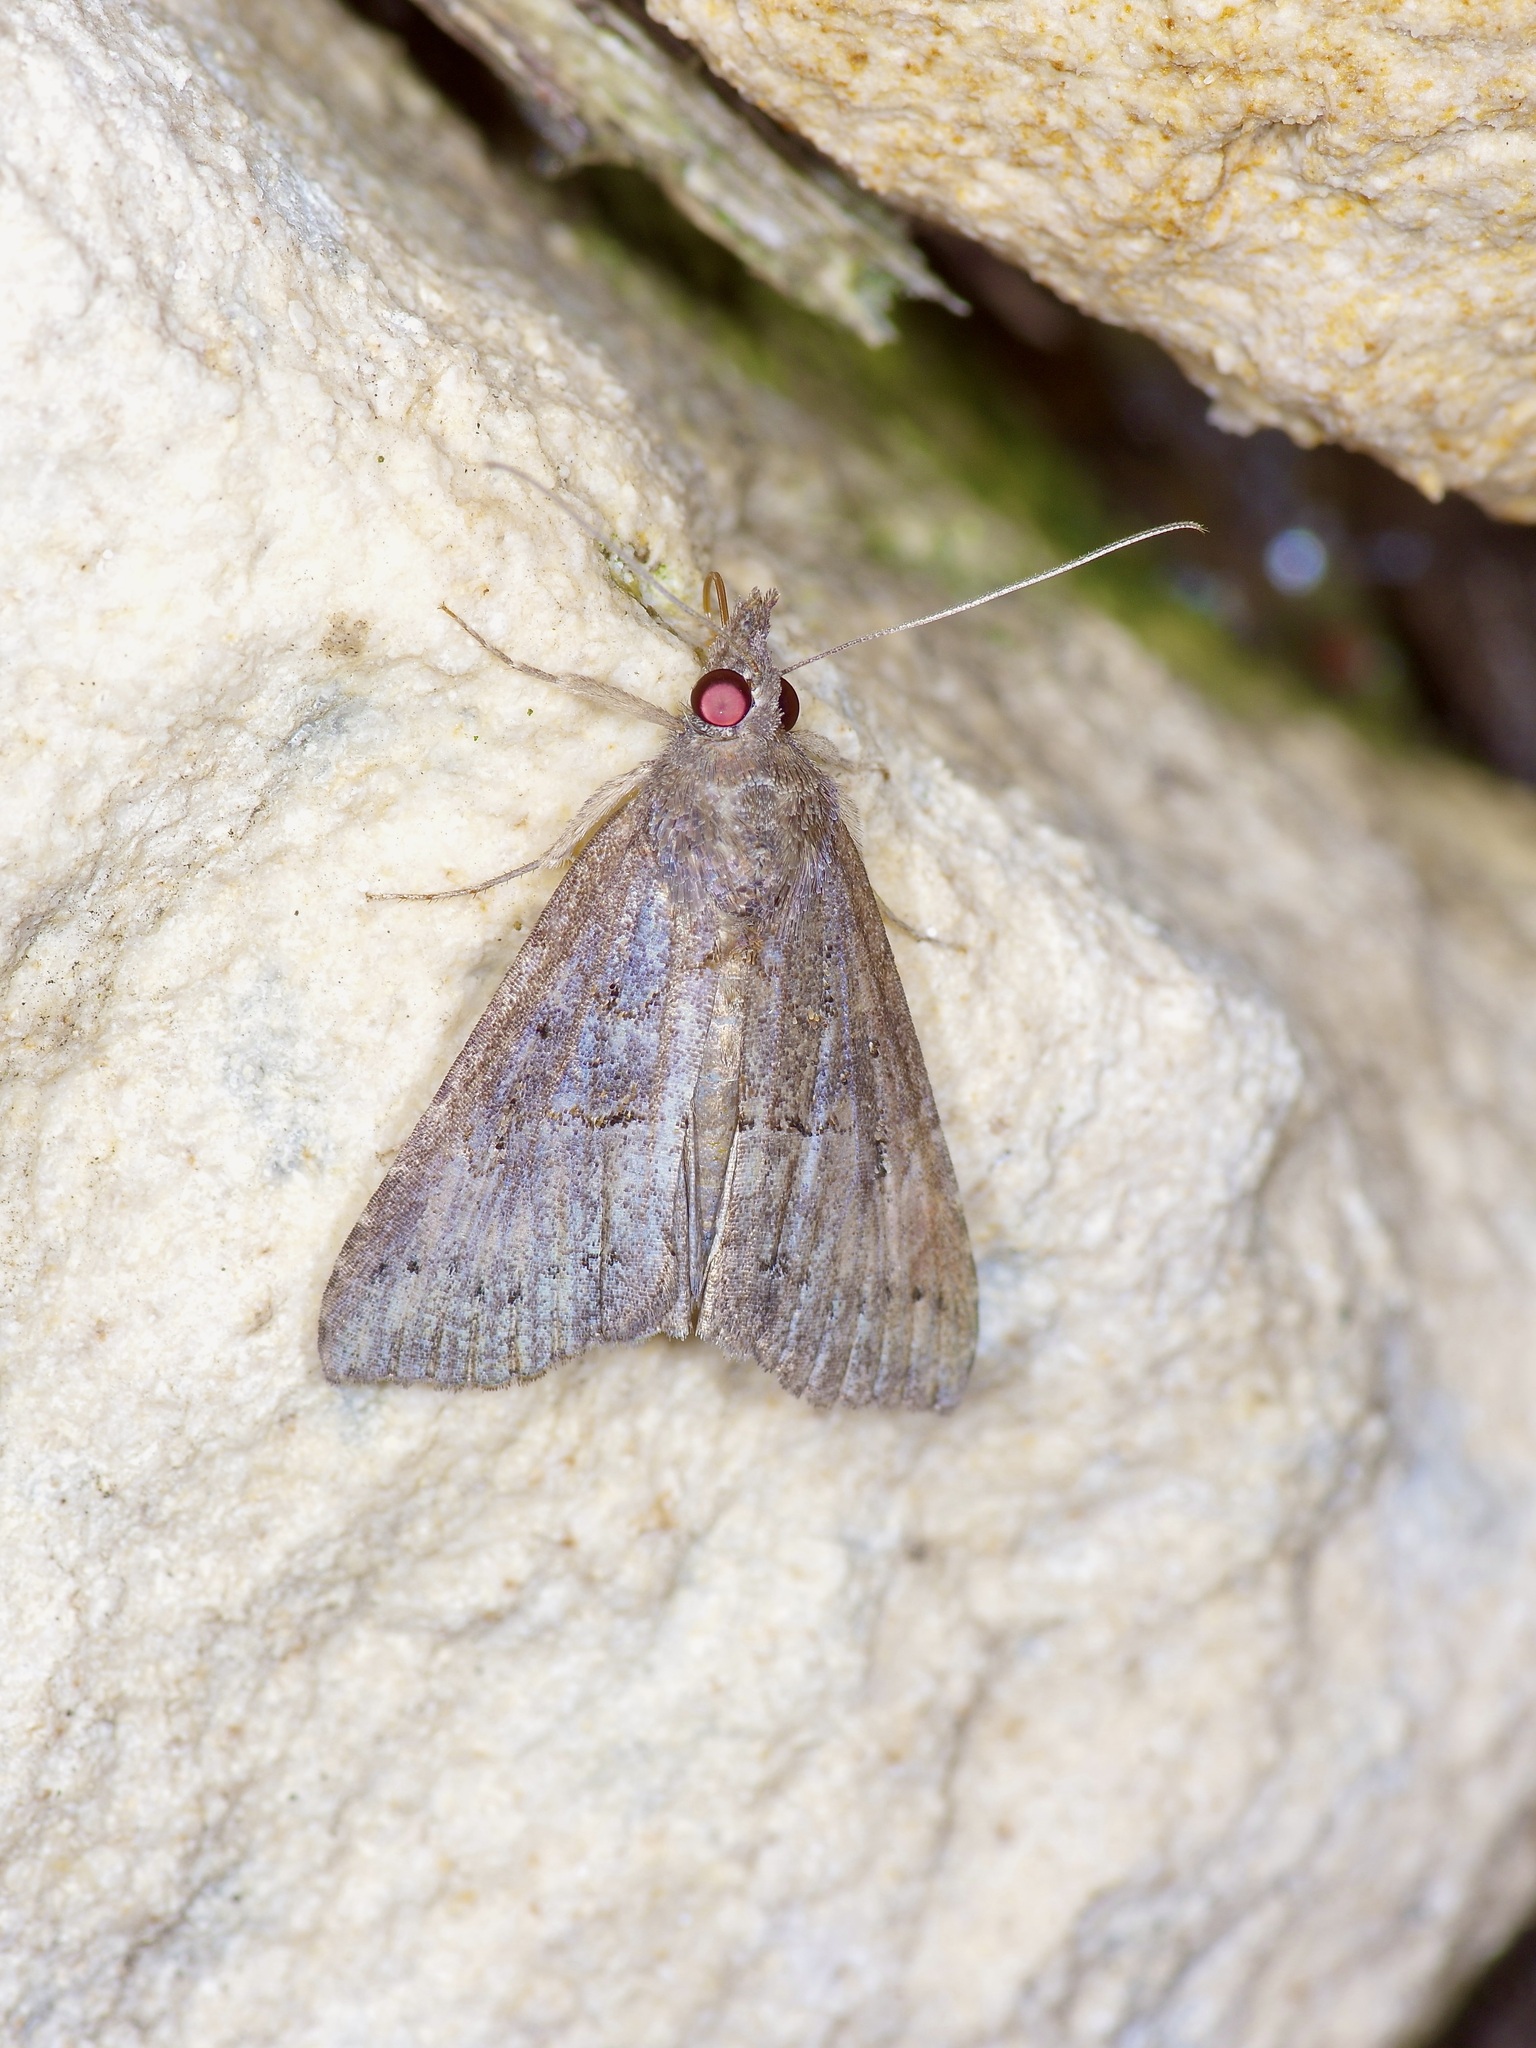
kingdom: Animalia
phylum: Arthropoda
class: Insecta
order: Lepidoptera
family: Erebidae
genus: Hypena
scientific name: Hypena scabra
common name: Green cloverworm
